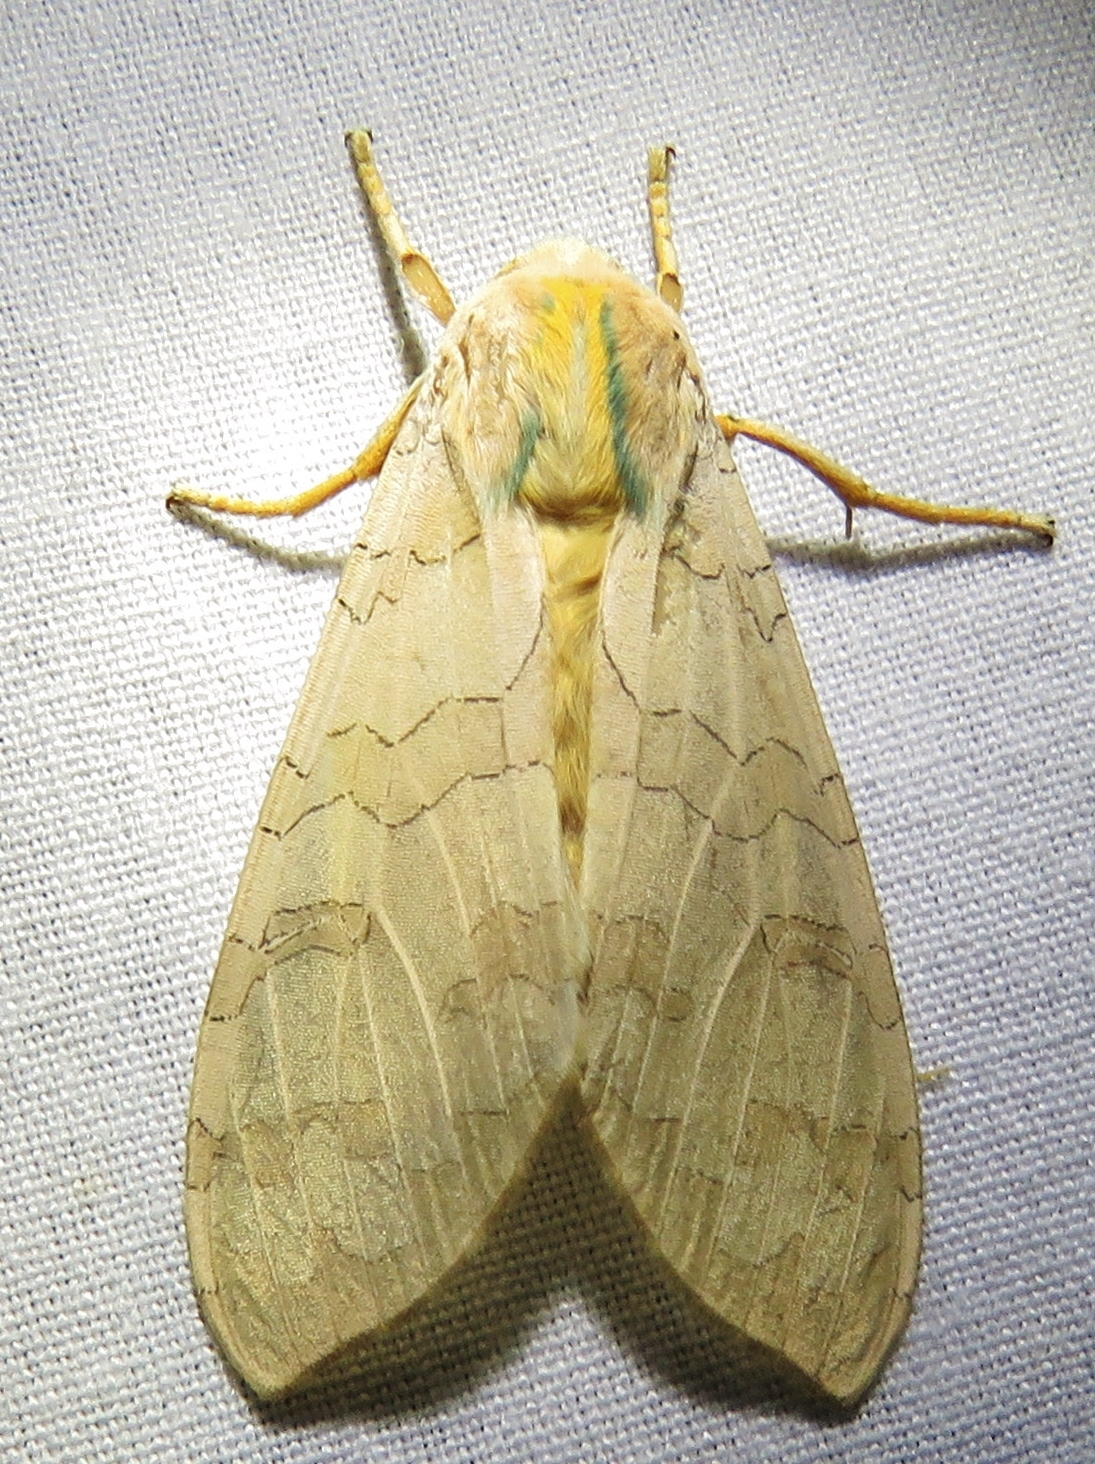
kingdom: Animalia
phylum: Arthropoda
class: Insecta
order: Lepidoptera
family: Erebidae
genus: Halysidota
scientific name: Halysidota tessellaris
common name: Banded tussock moth
